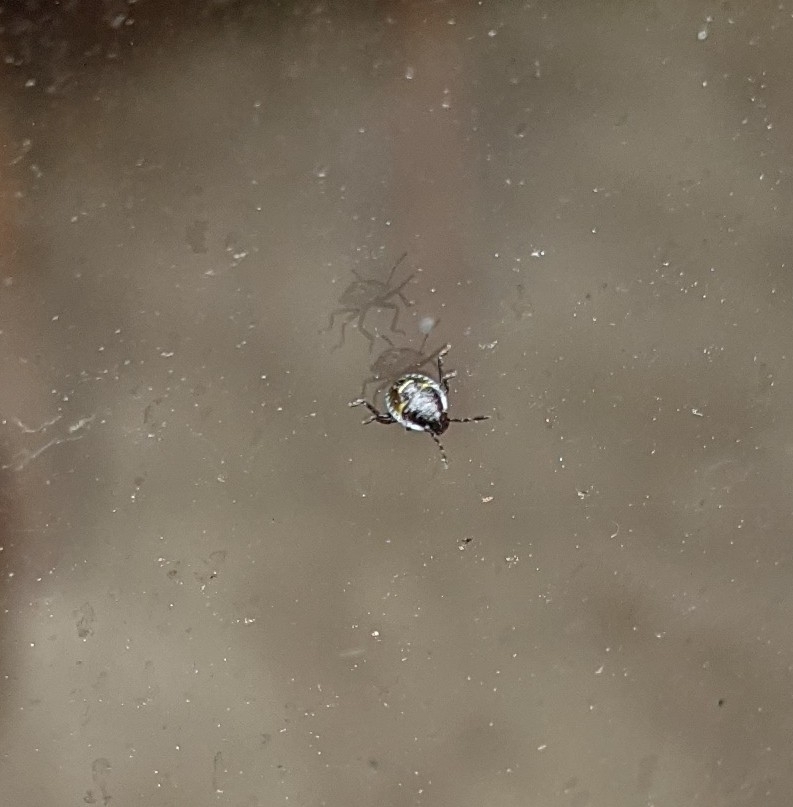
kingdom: Animalia
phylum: Arthropoda
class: Insecta
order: Hemiptera
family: Pentatomidae
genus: Palomena
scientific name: Palomena prasina
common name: Green shieldbug
